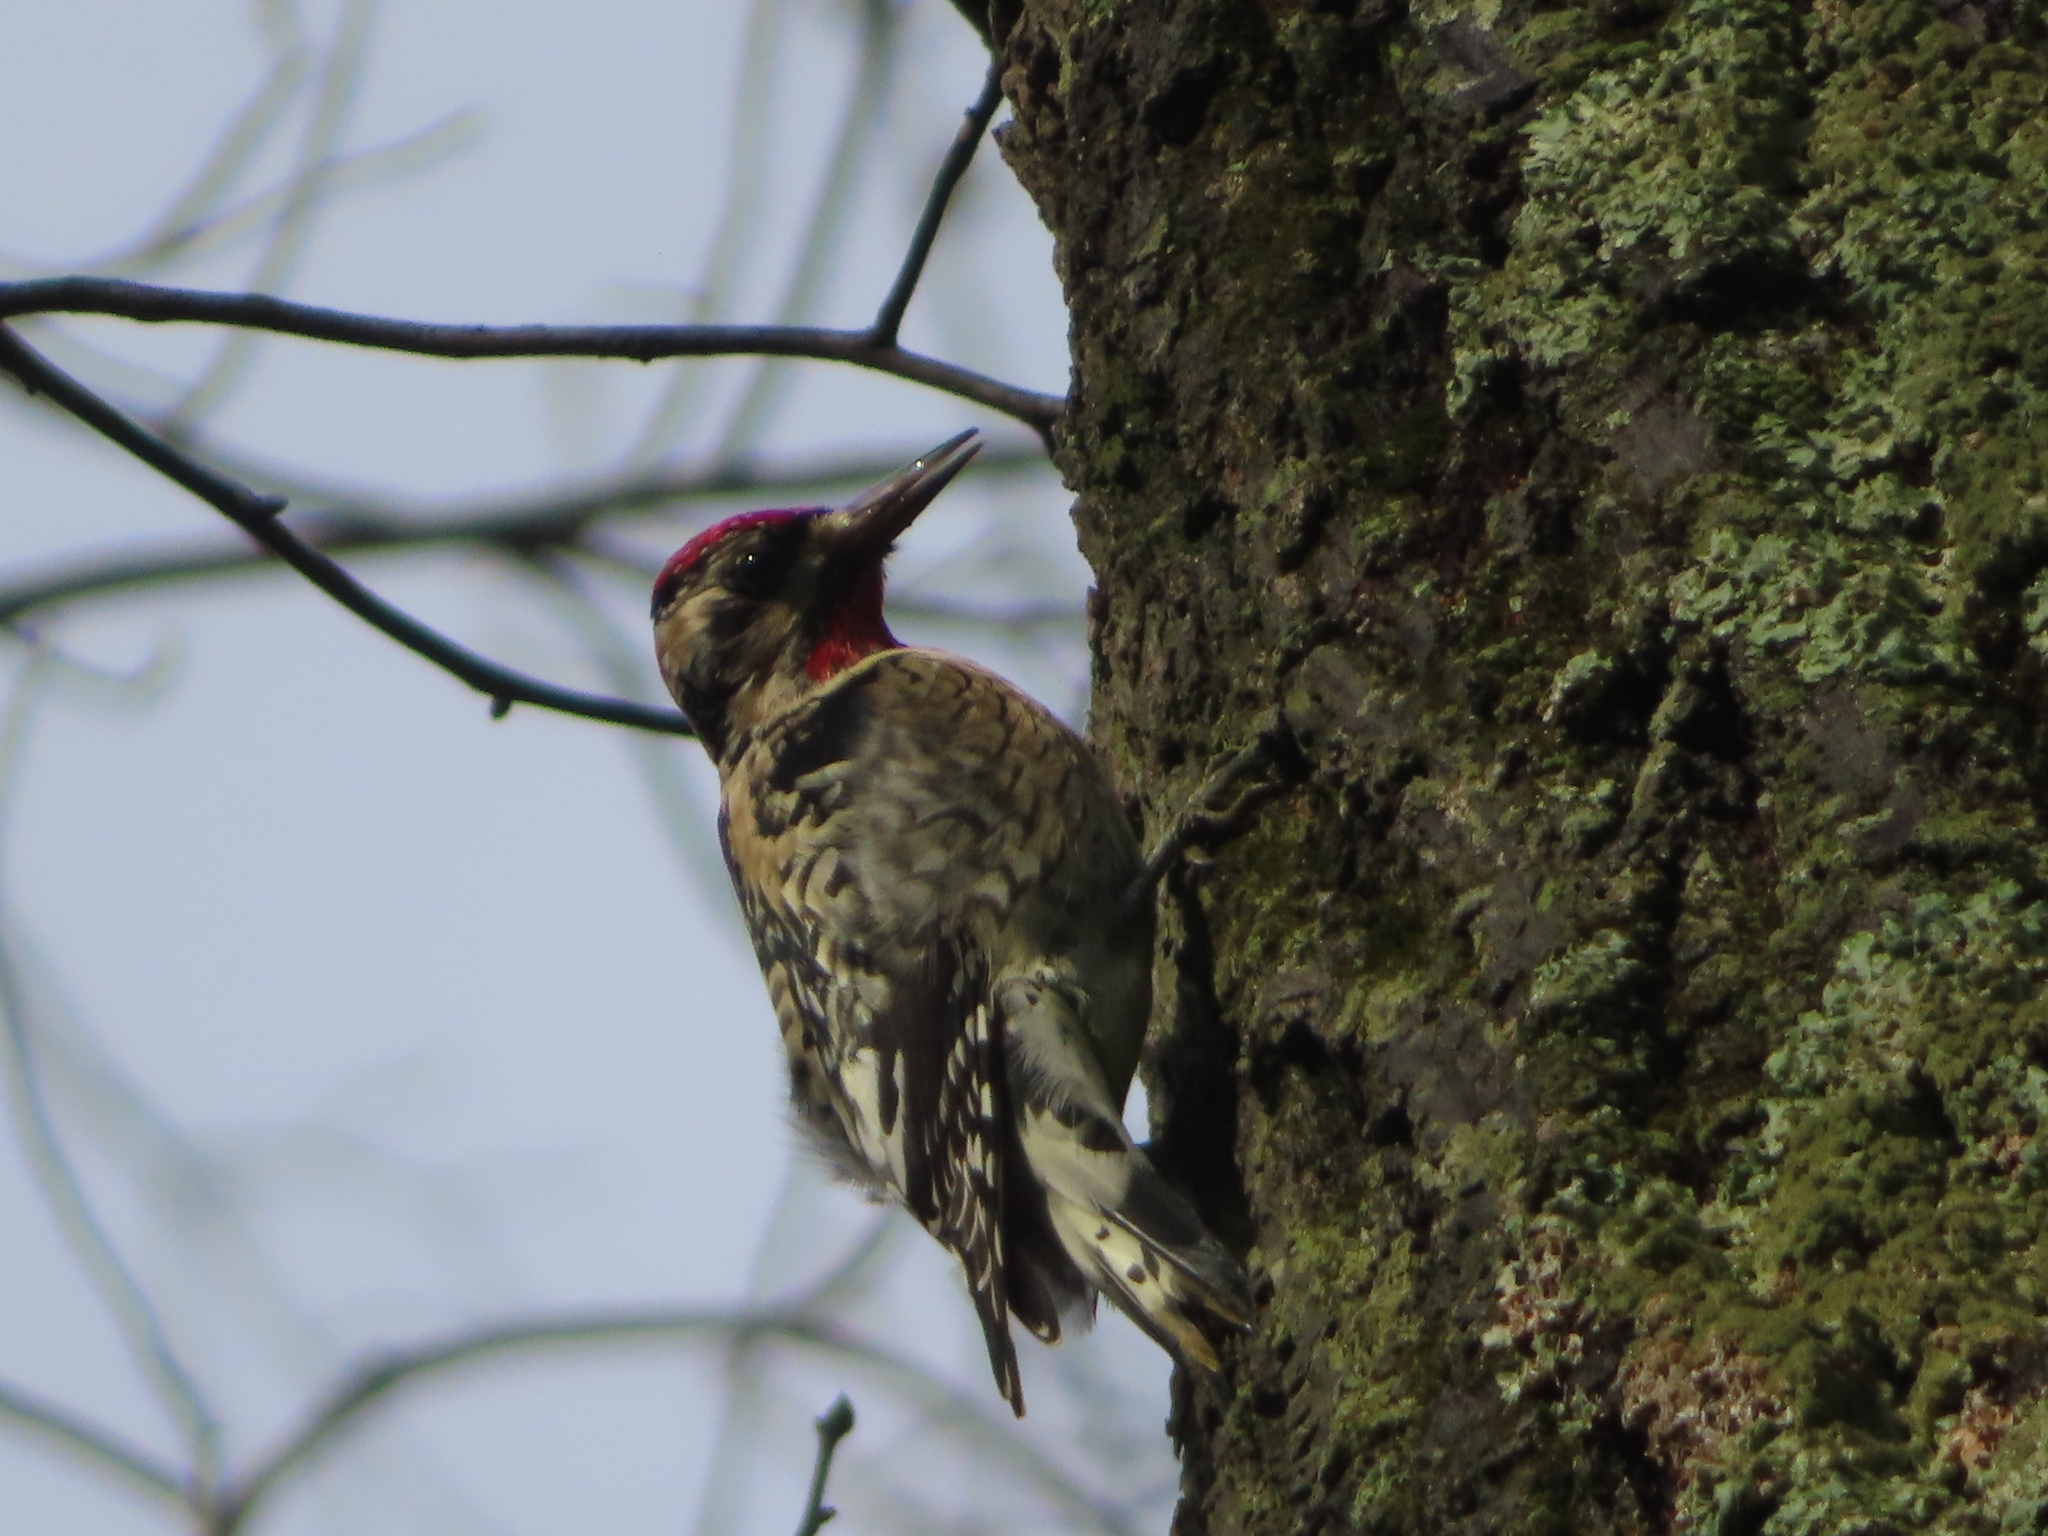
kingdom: Animalia
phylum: Chordata
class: Aves
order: Piciformes
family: Picidae
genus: Sphyrapicus
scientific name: Sphyrapicus varius
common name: Yellow-bellied sapsucker
